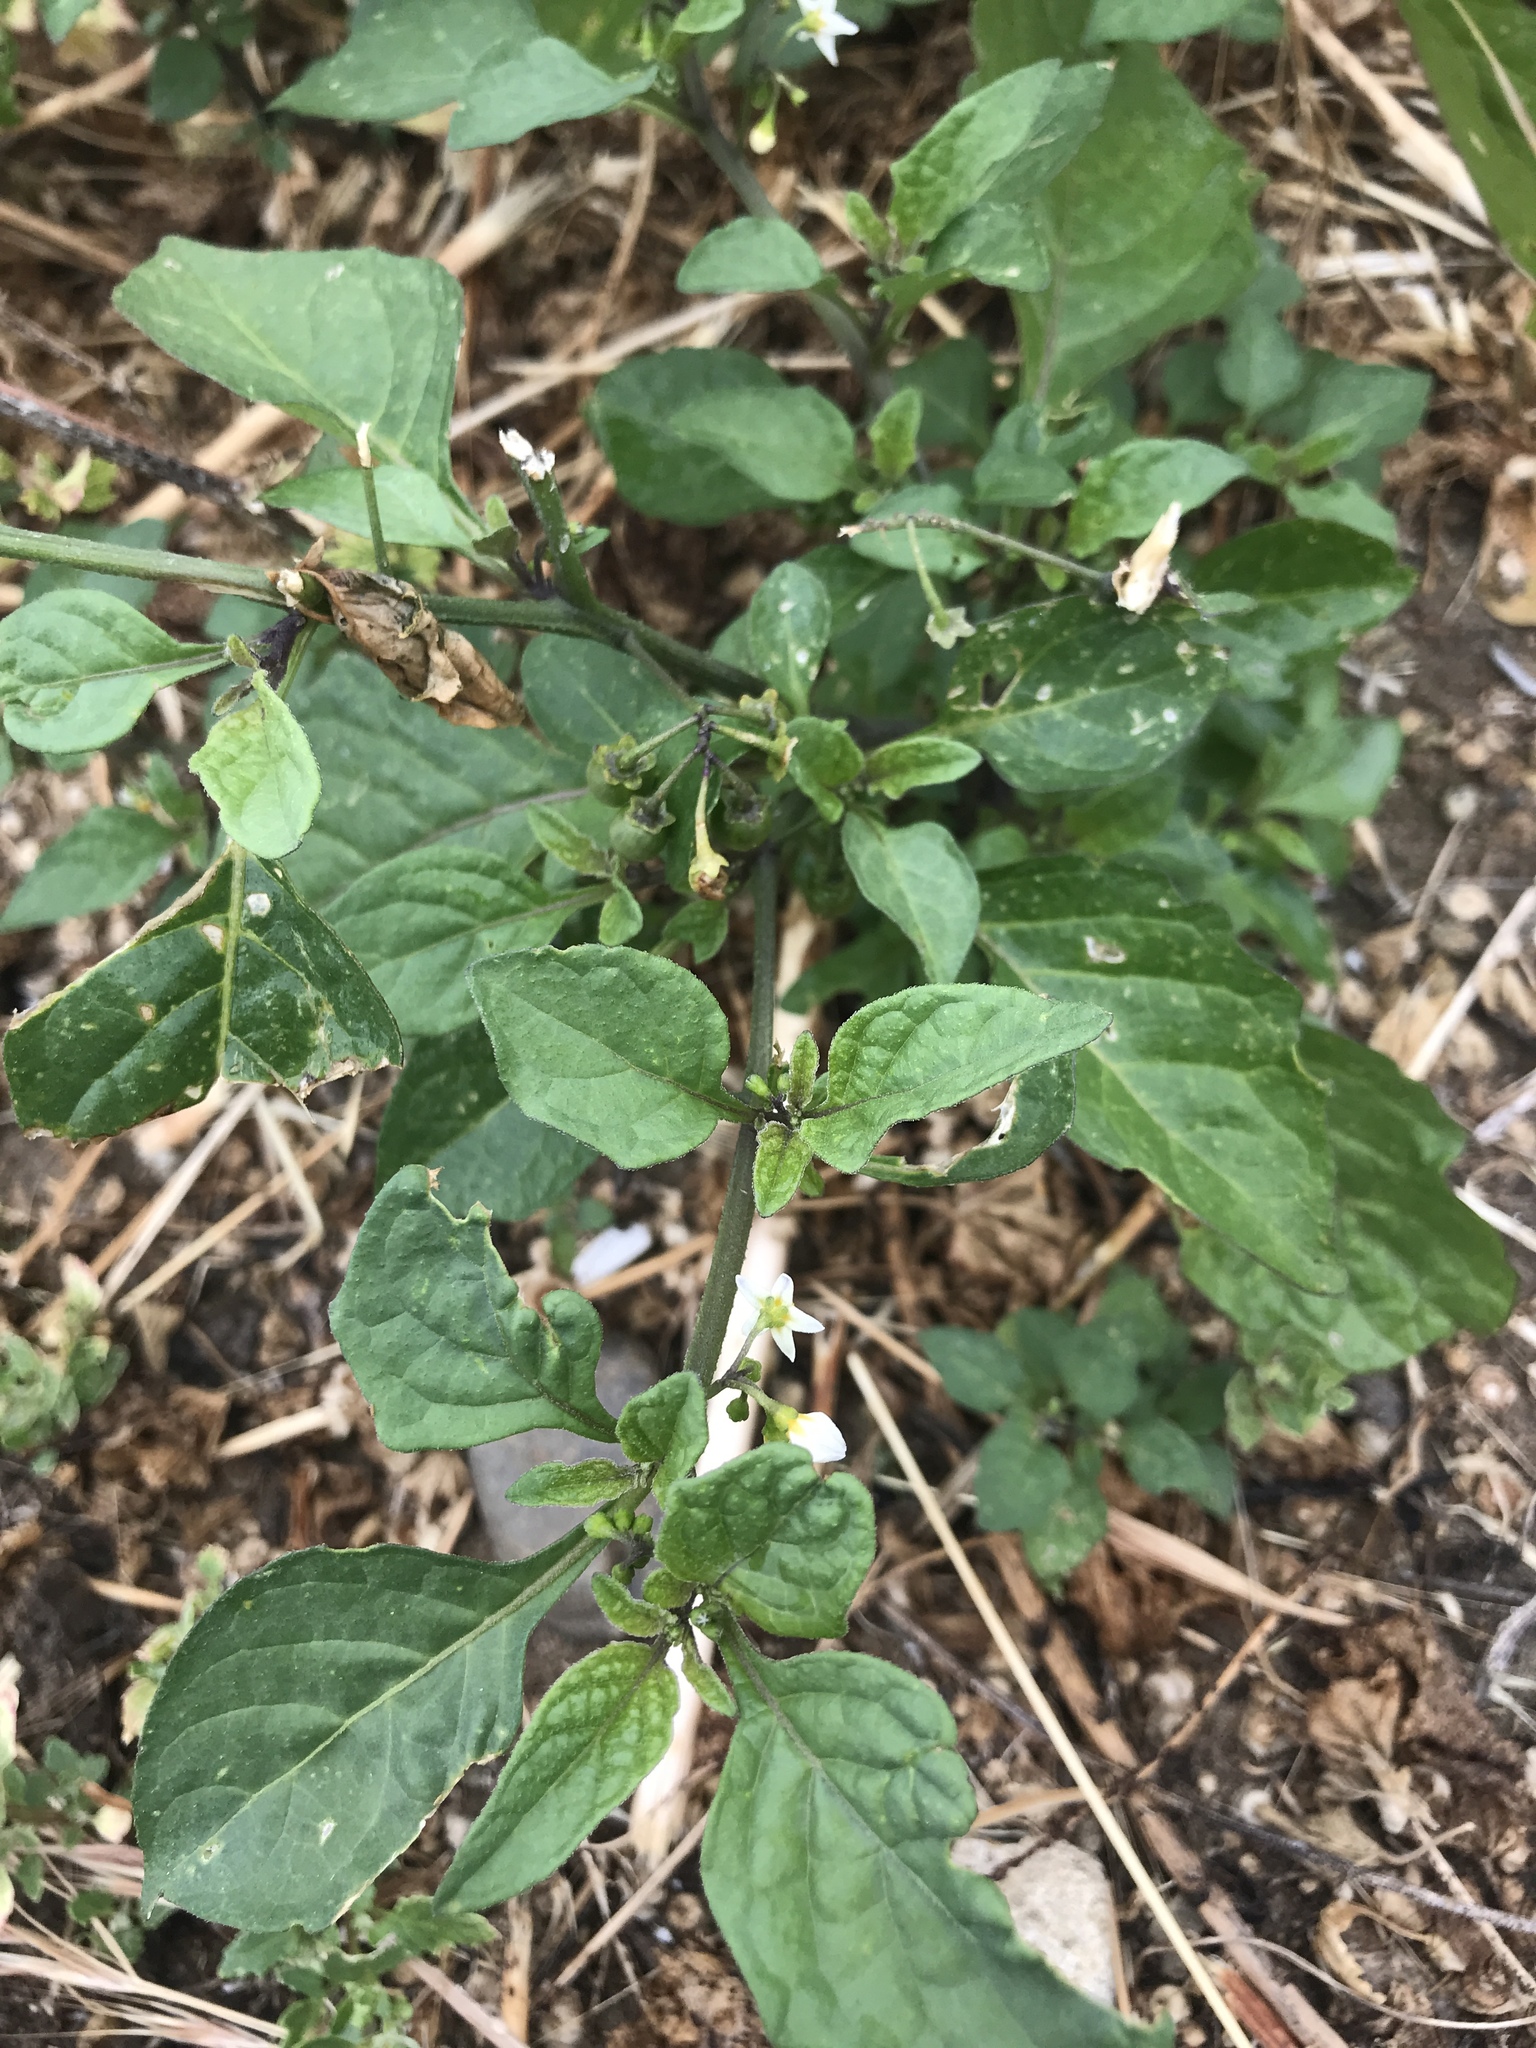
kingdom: Plantae
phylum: Tracheophyta
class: Magnoliopsida
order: Solanales
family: Solanaceae
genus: Solanum
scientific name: Solanum nigrum
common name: Black nightshade
